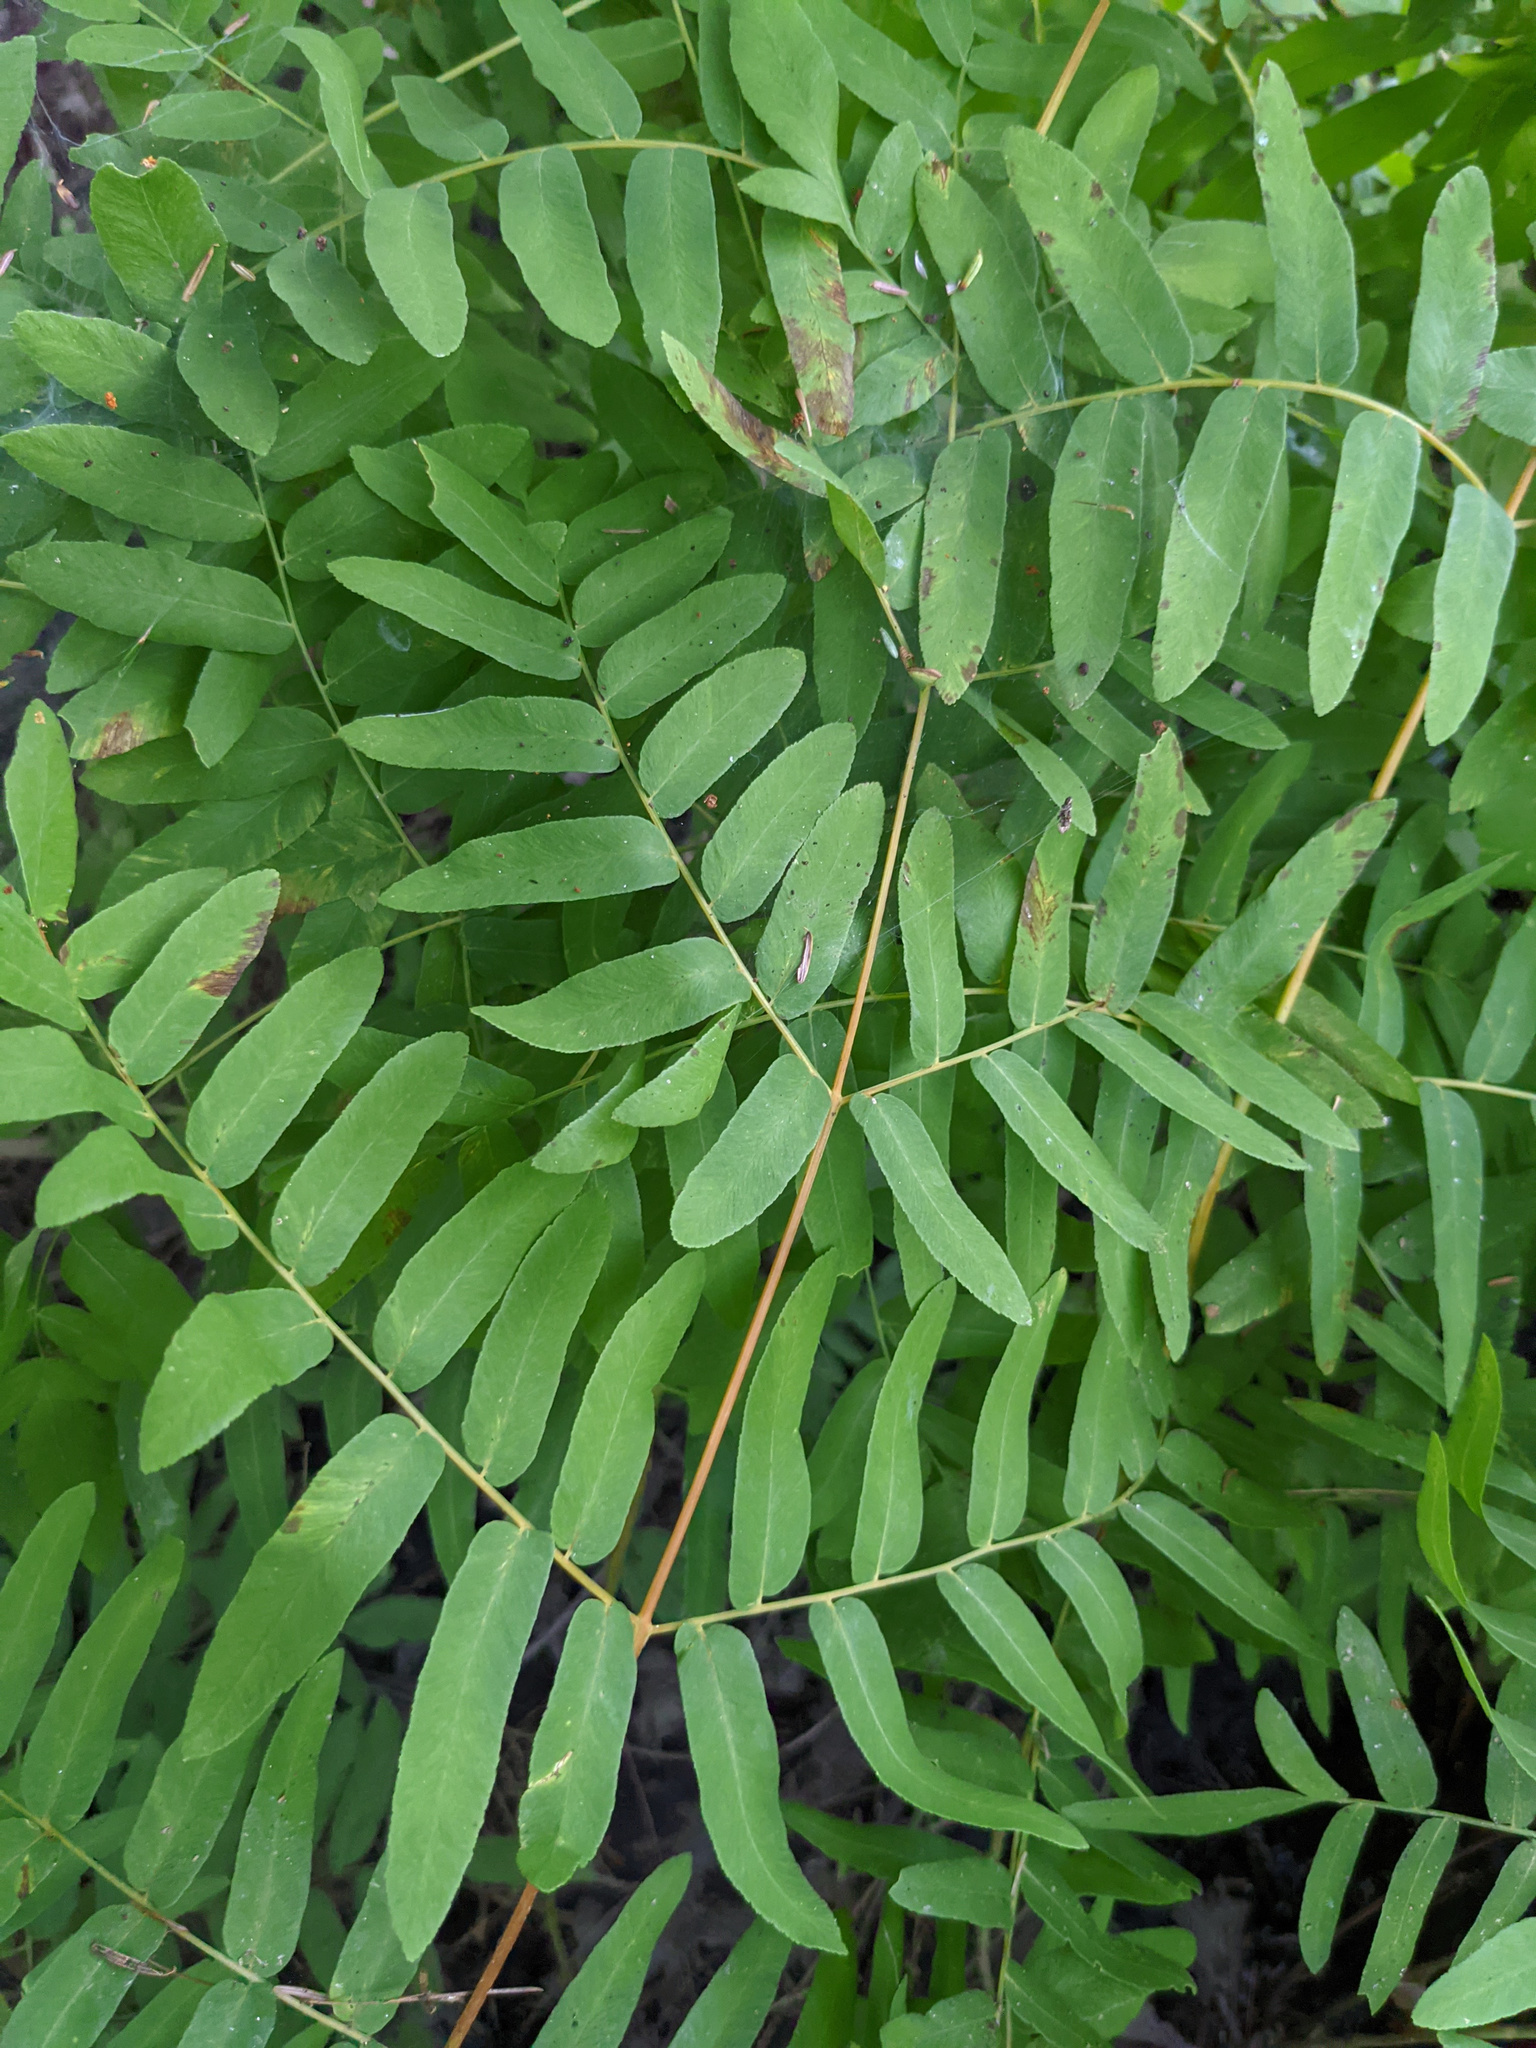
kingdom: Plantae
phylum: Tracheophyta
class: Polypodiopsida
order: Osmundales
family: Osmundaceae
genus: Osmunda
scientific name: Osmunda spectabilis
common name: American royal fern
